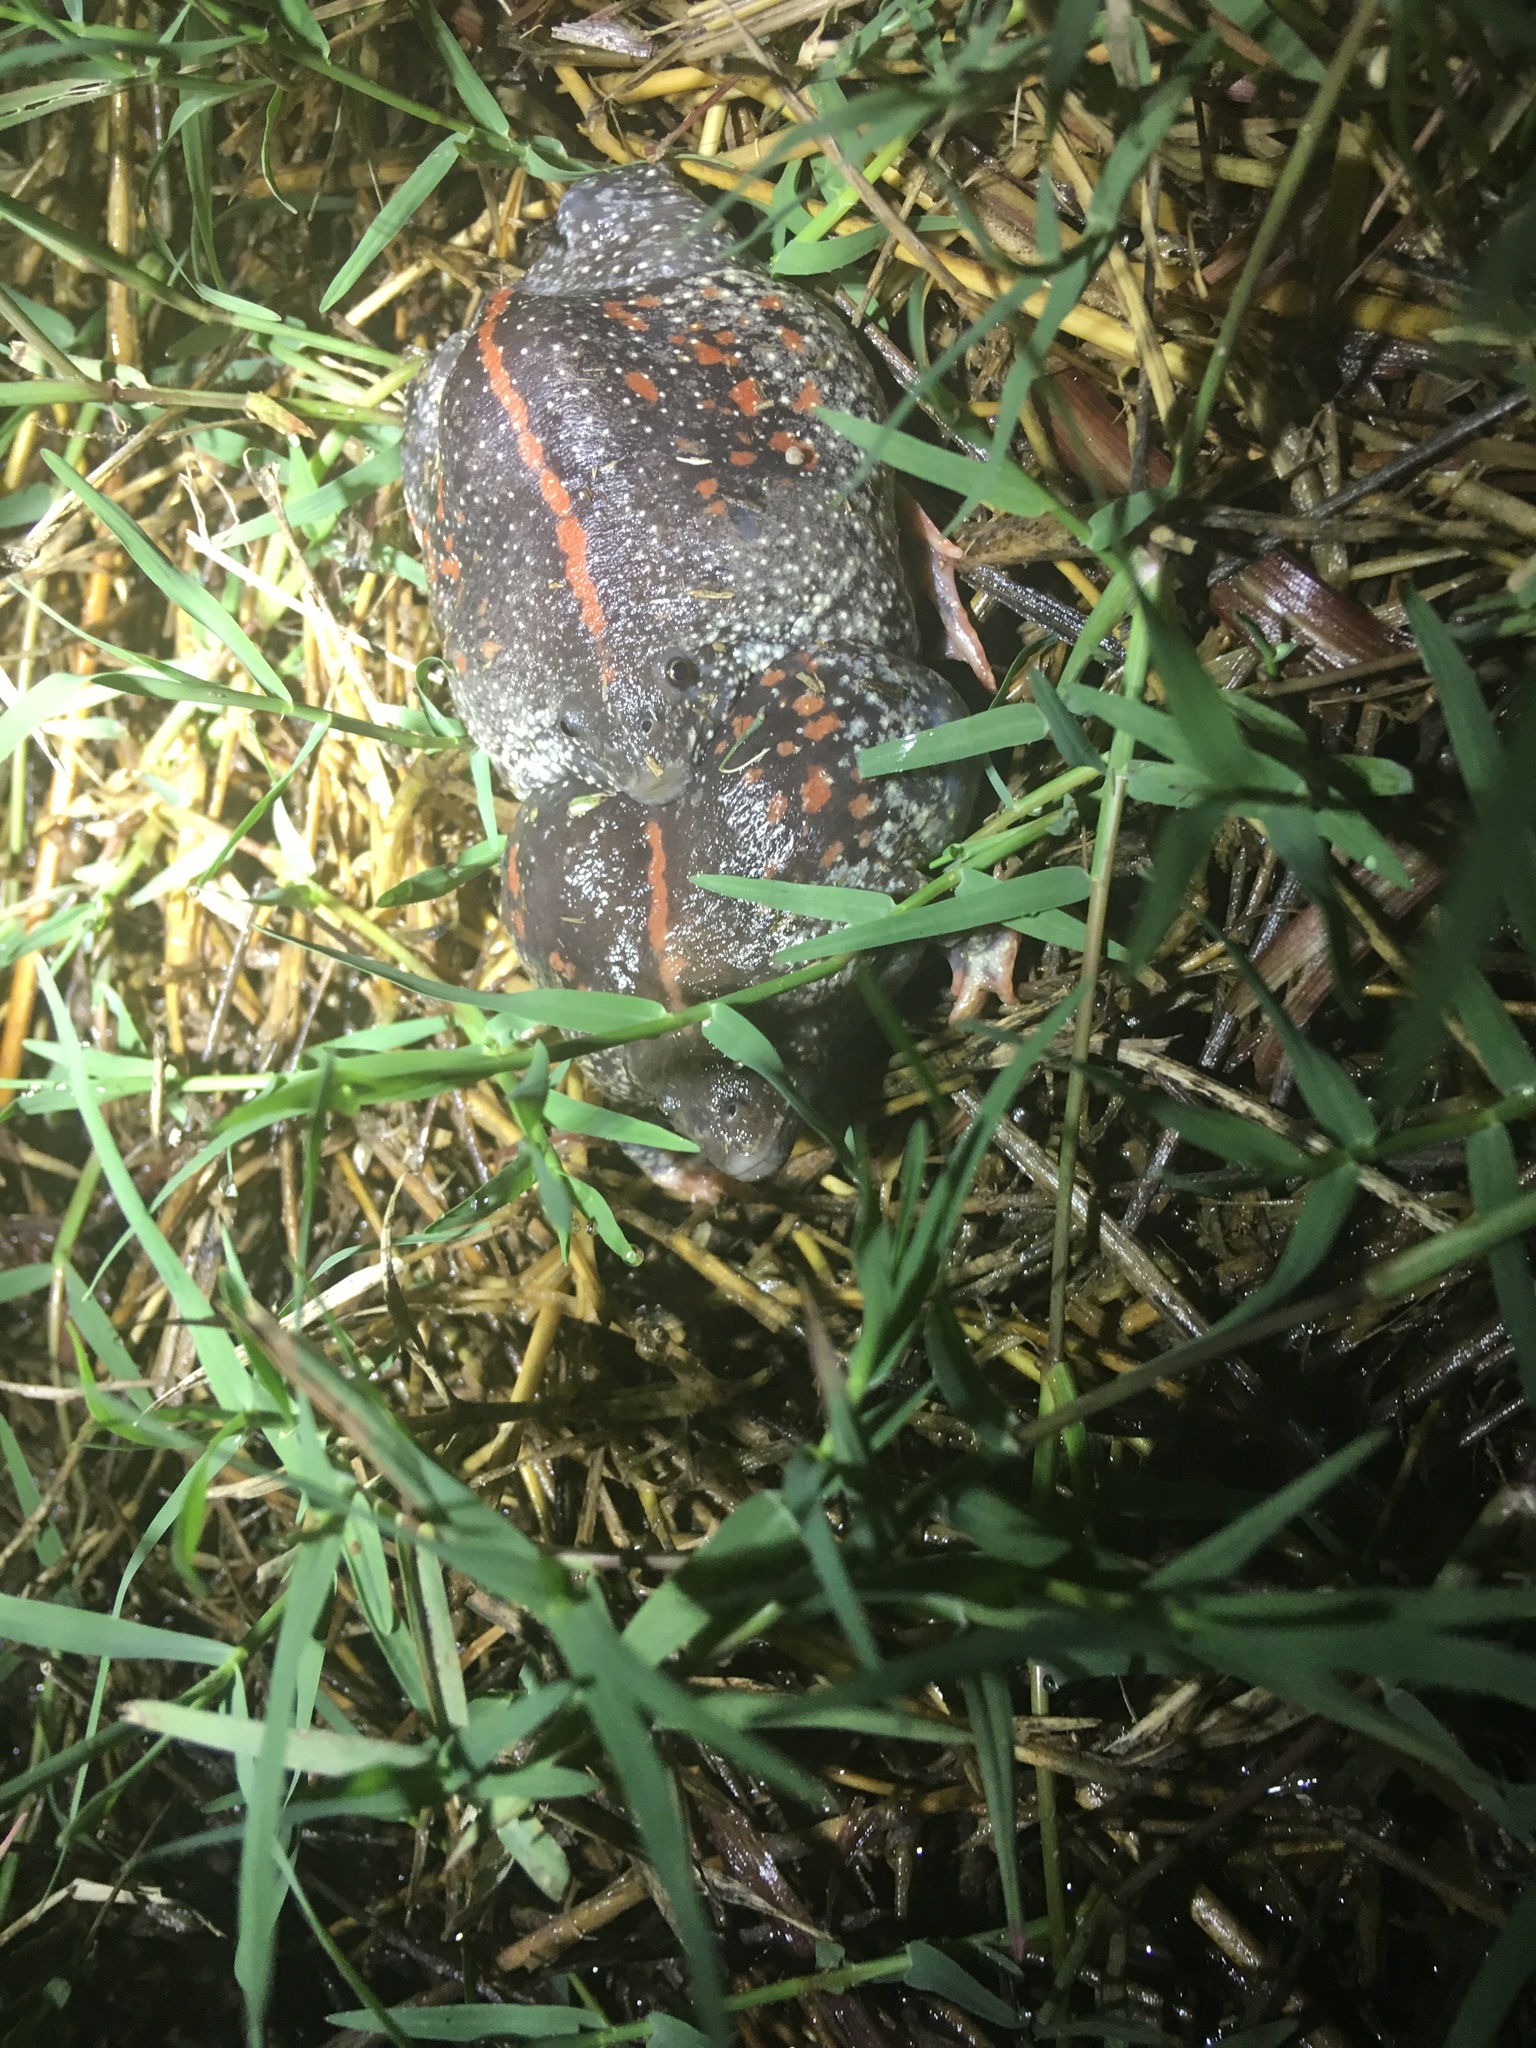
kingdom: Animalia
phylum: Chordata
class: Amphibia
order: Anura
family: Rhinophrynidae
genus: Rhinophrynus
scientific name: Rhinophrynus dorsalis
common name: Mexican burrowing toad
